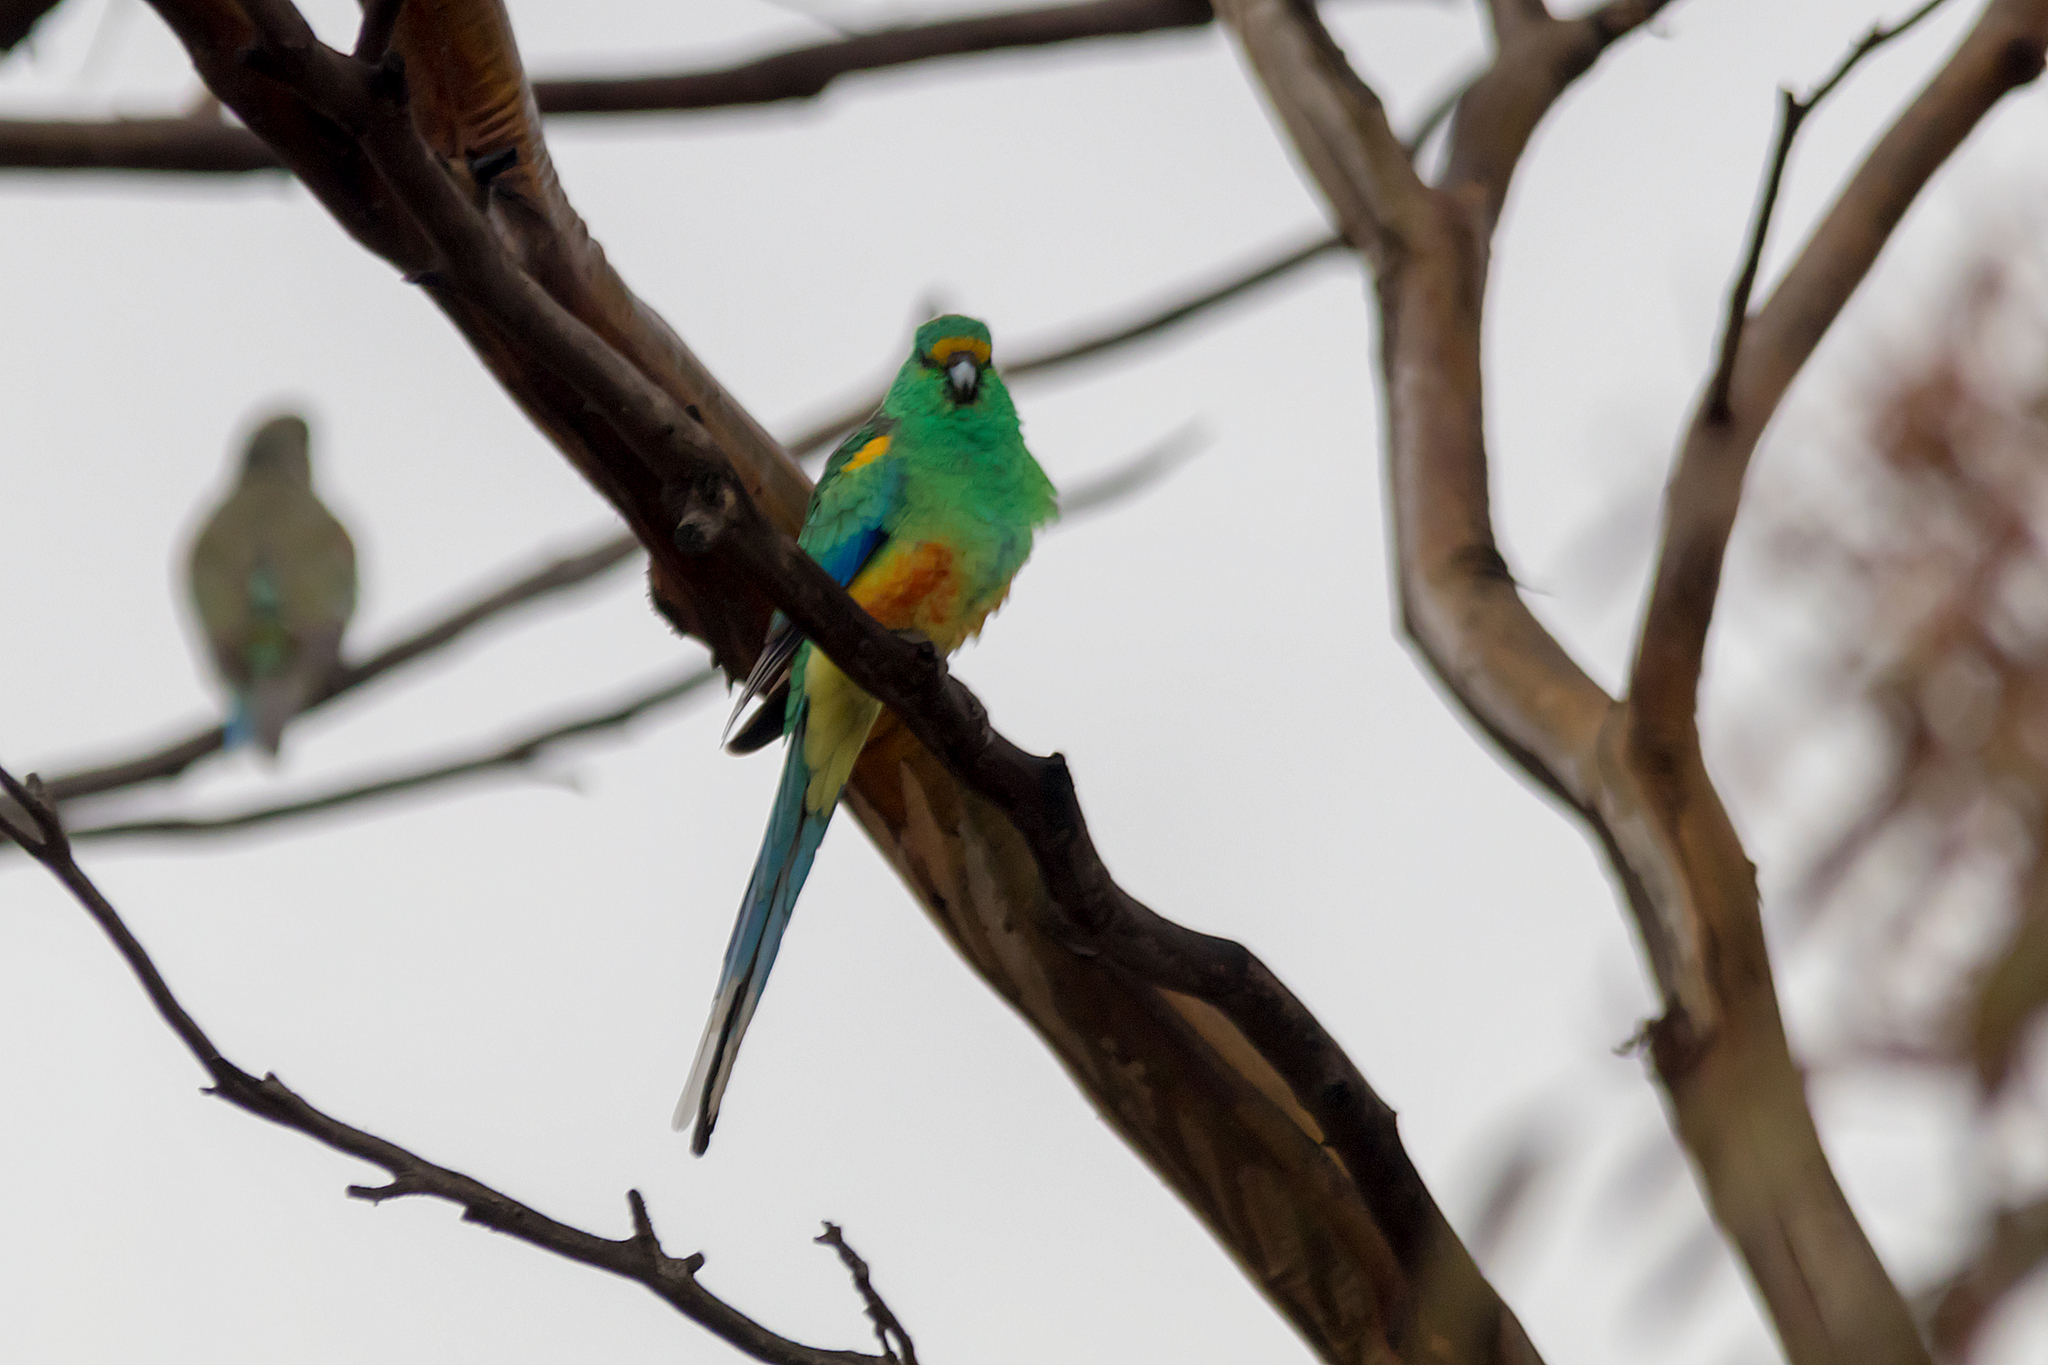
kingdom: Animalia
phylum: Chordata
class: Aves
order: Psittaciformes
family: Psittaculidae
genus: Psephotellus
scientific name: Psephotellus varius
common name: Mulga parrot
